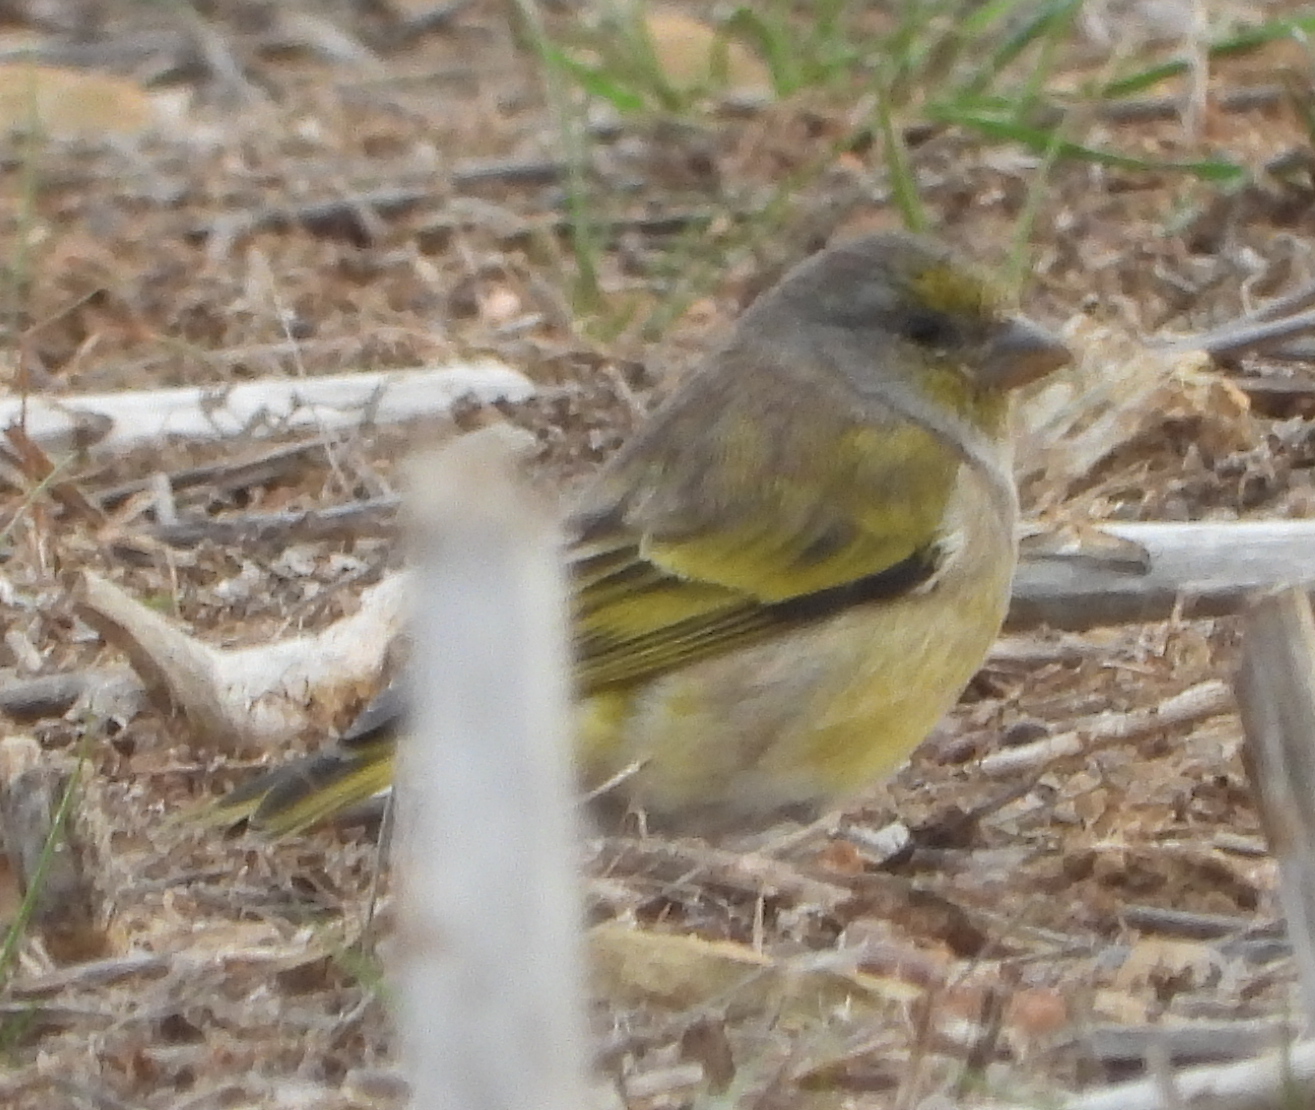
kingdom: Animalia
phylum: Chordata
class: Aves
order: Passeriformes
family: Fringillidae
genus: Serinus
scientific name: Serinus canicollis
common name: Cape canary
